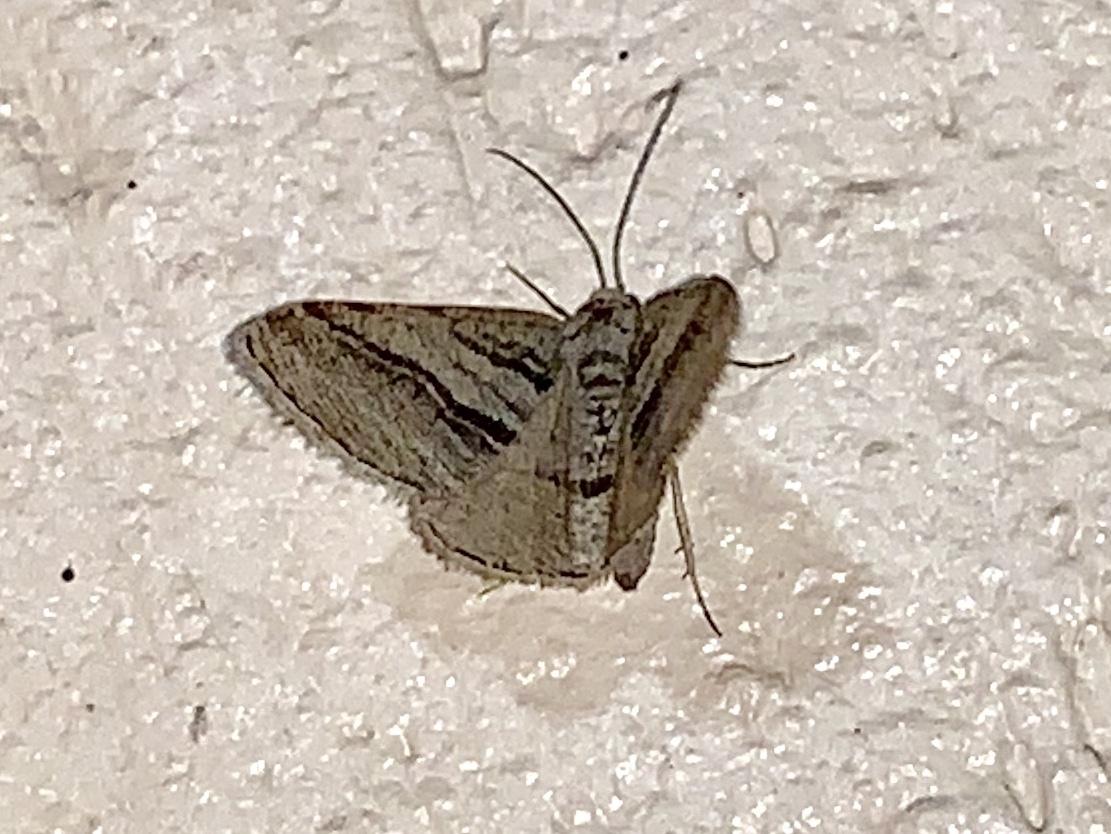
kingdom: Animalia
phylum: Arthropoda
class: Insecta
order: Lepidoptera
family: Geometridae
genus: Digrammia
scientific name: Digrammia atrofasciata
